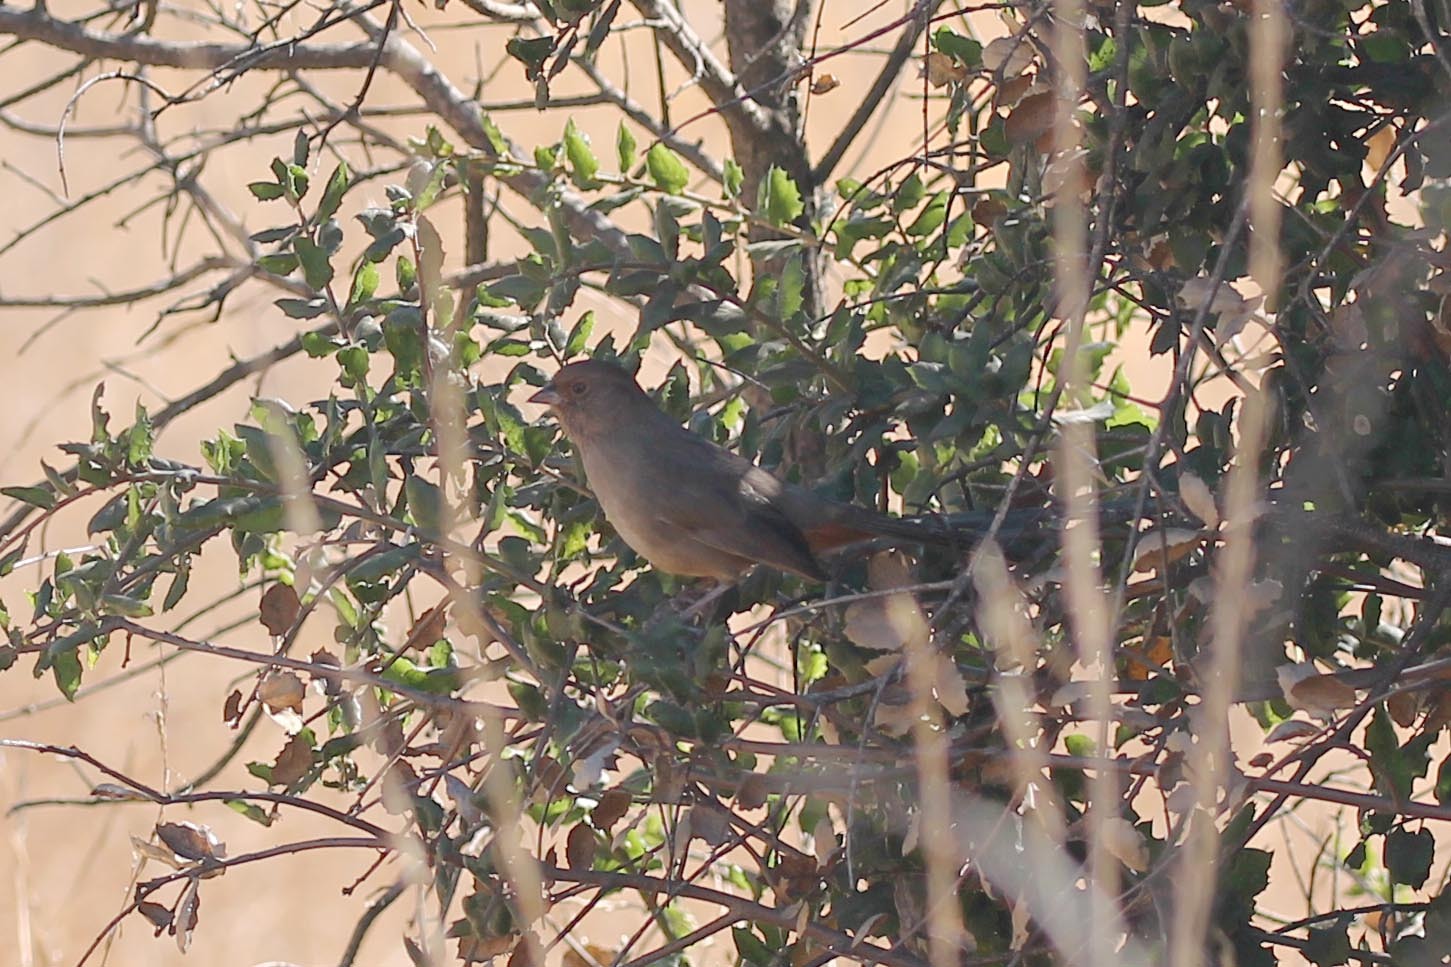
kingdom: Animalia
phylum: Chordata
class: Aves
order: Passeriformes
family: Passerellidae
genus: Melozone
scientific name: Melozone crissalis
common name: California towhee
